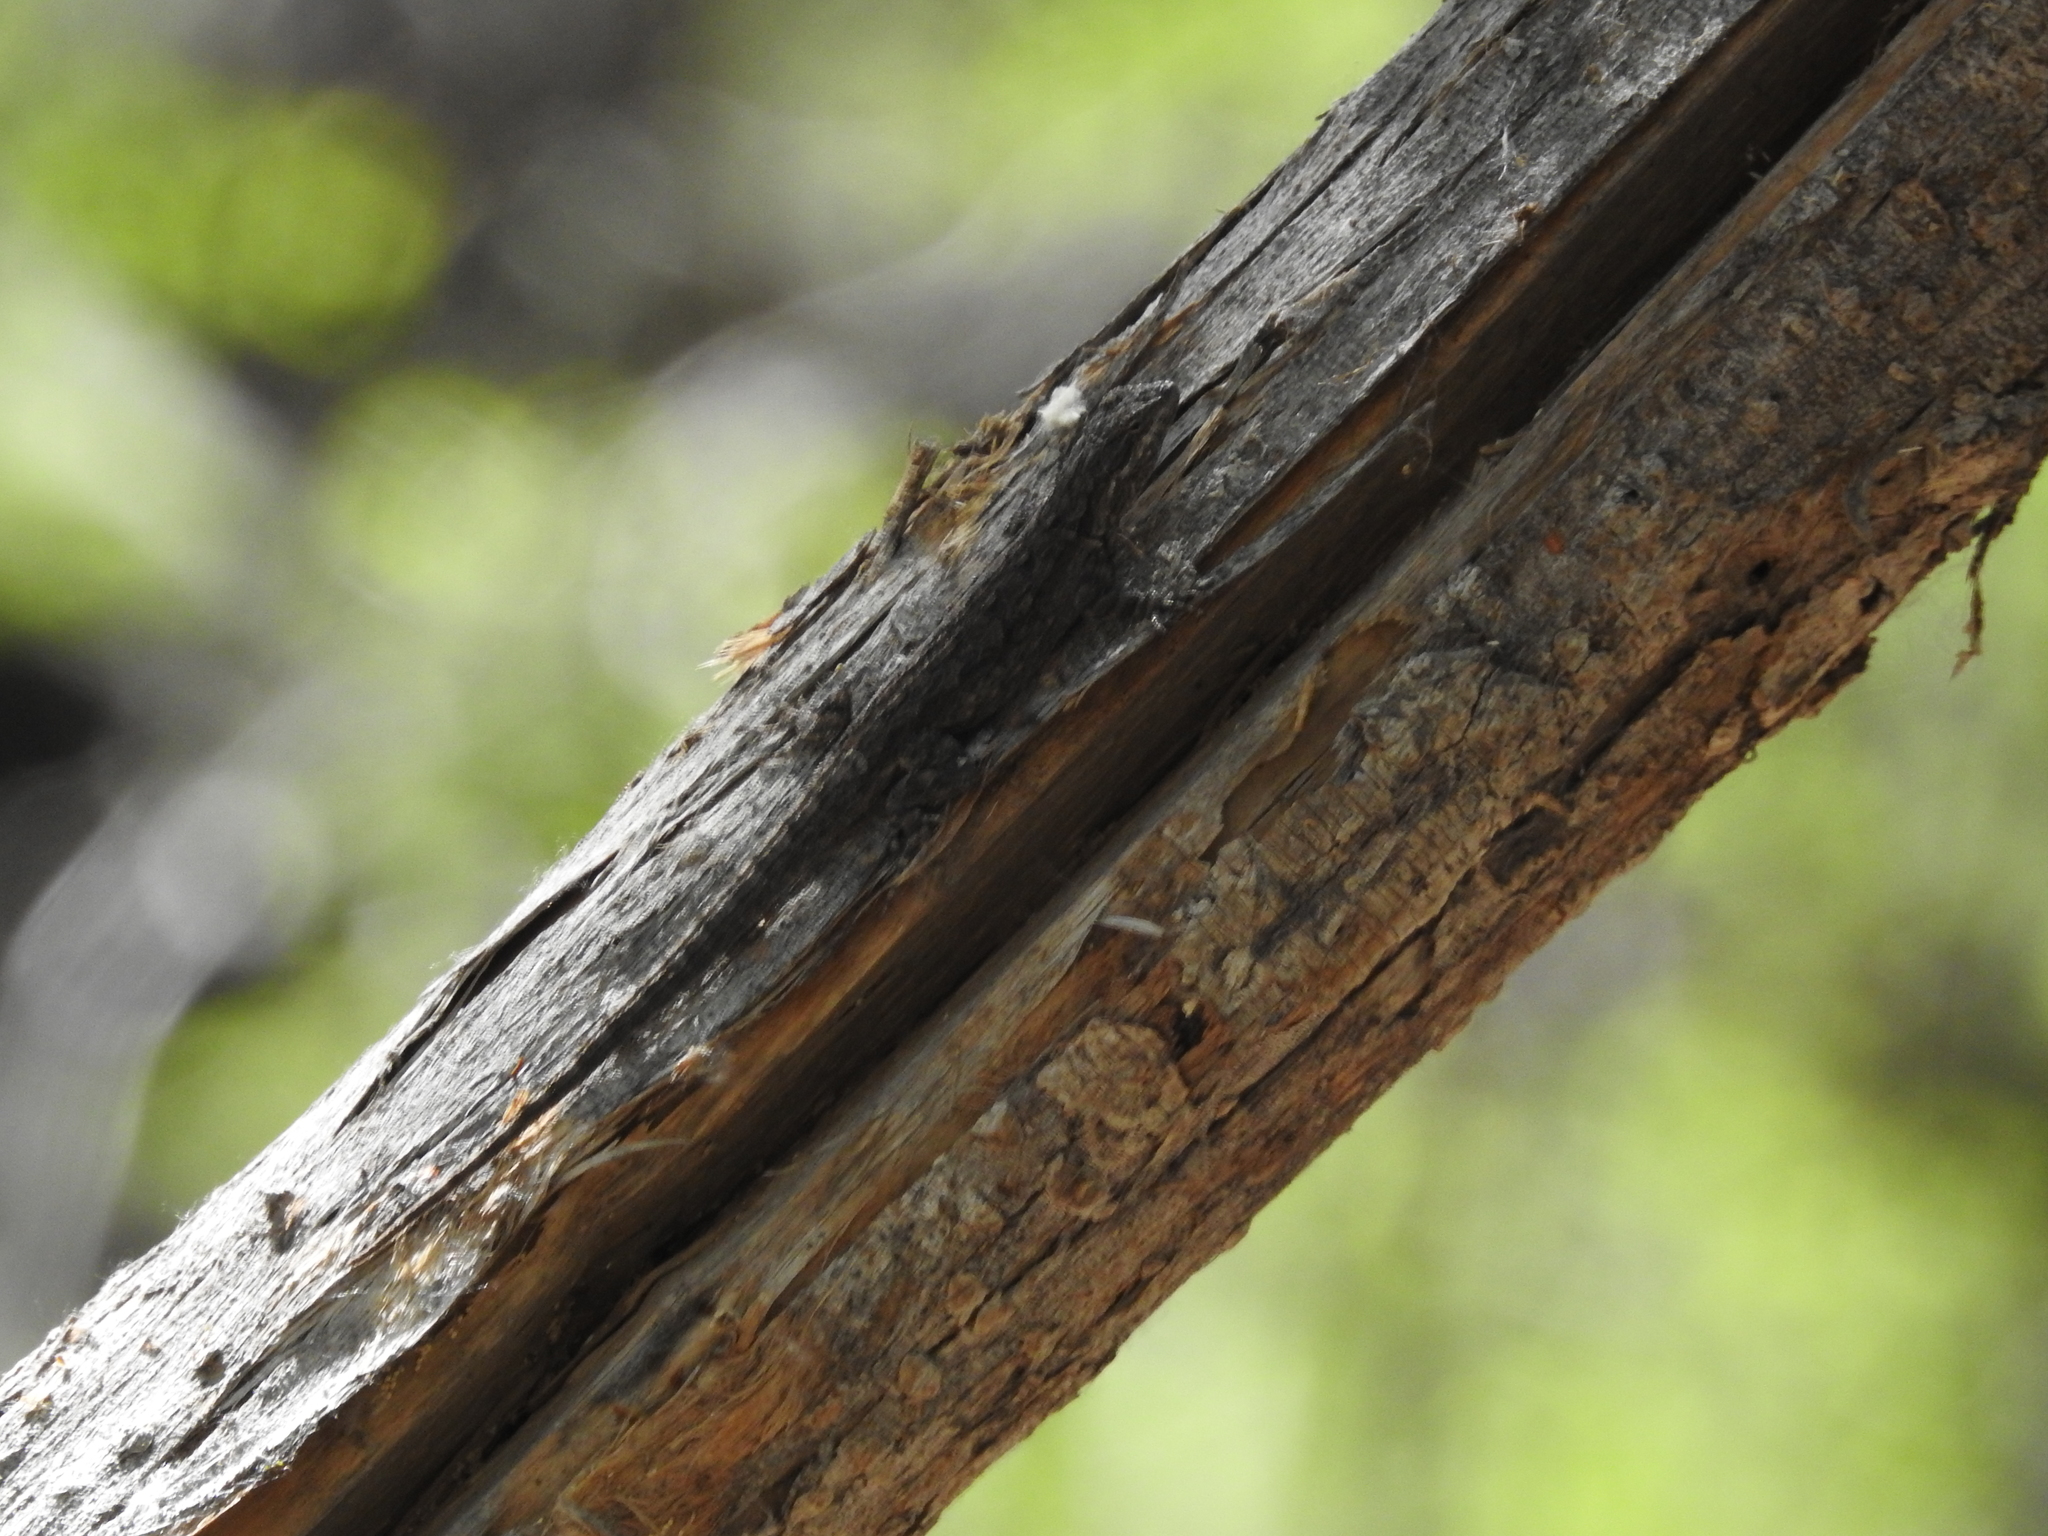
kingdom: Animalia
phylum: Chordata
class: Squamata
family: Phrynosomatidae
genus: Urosaurus
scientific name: Urosaurus ornatus
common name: Ornate tree lizard
